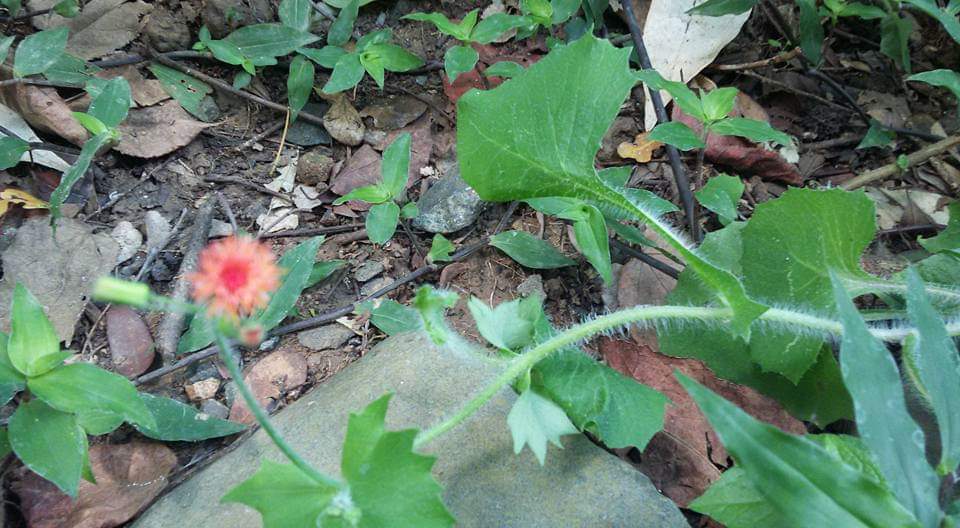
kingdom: Plantae
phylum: Tracheophyta
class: Magnoliopsida
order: Asterales
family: Asteraceae
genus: Emilia
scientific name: Emilia sonchifolia
